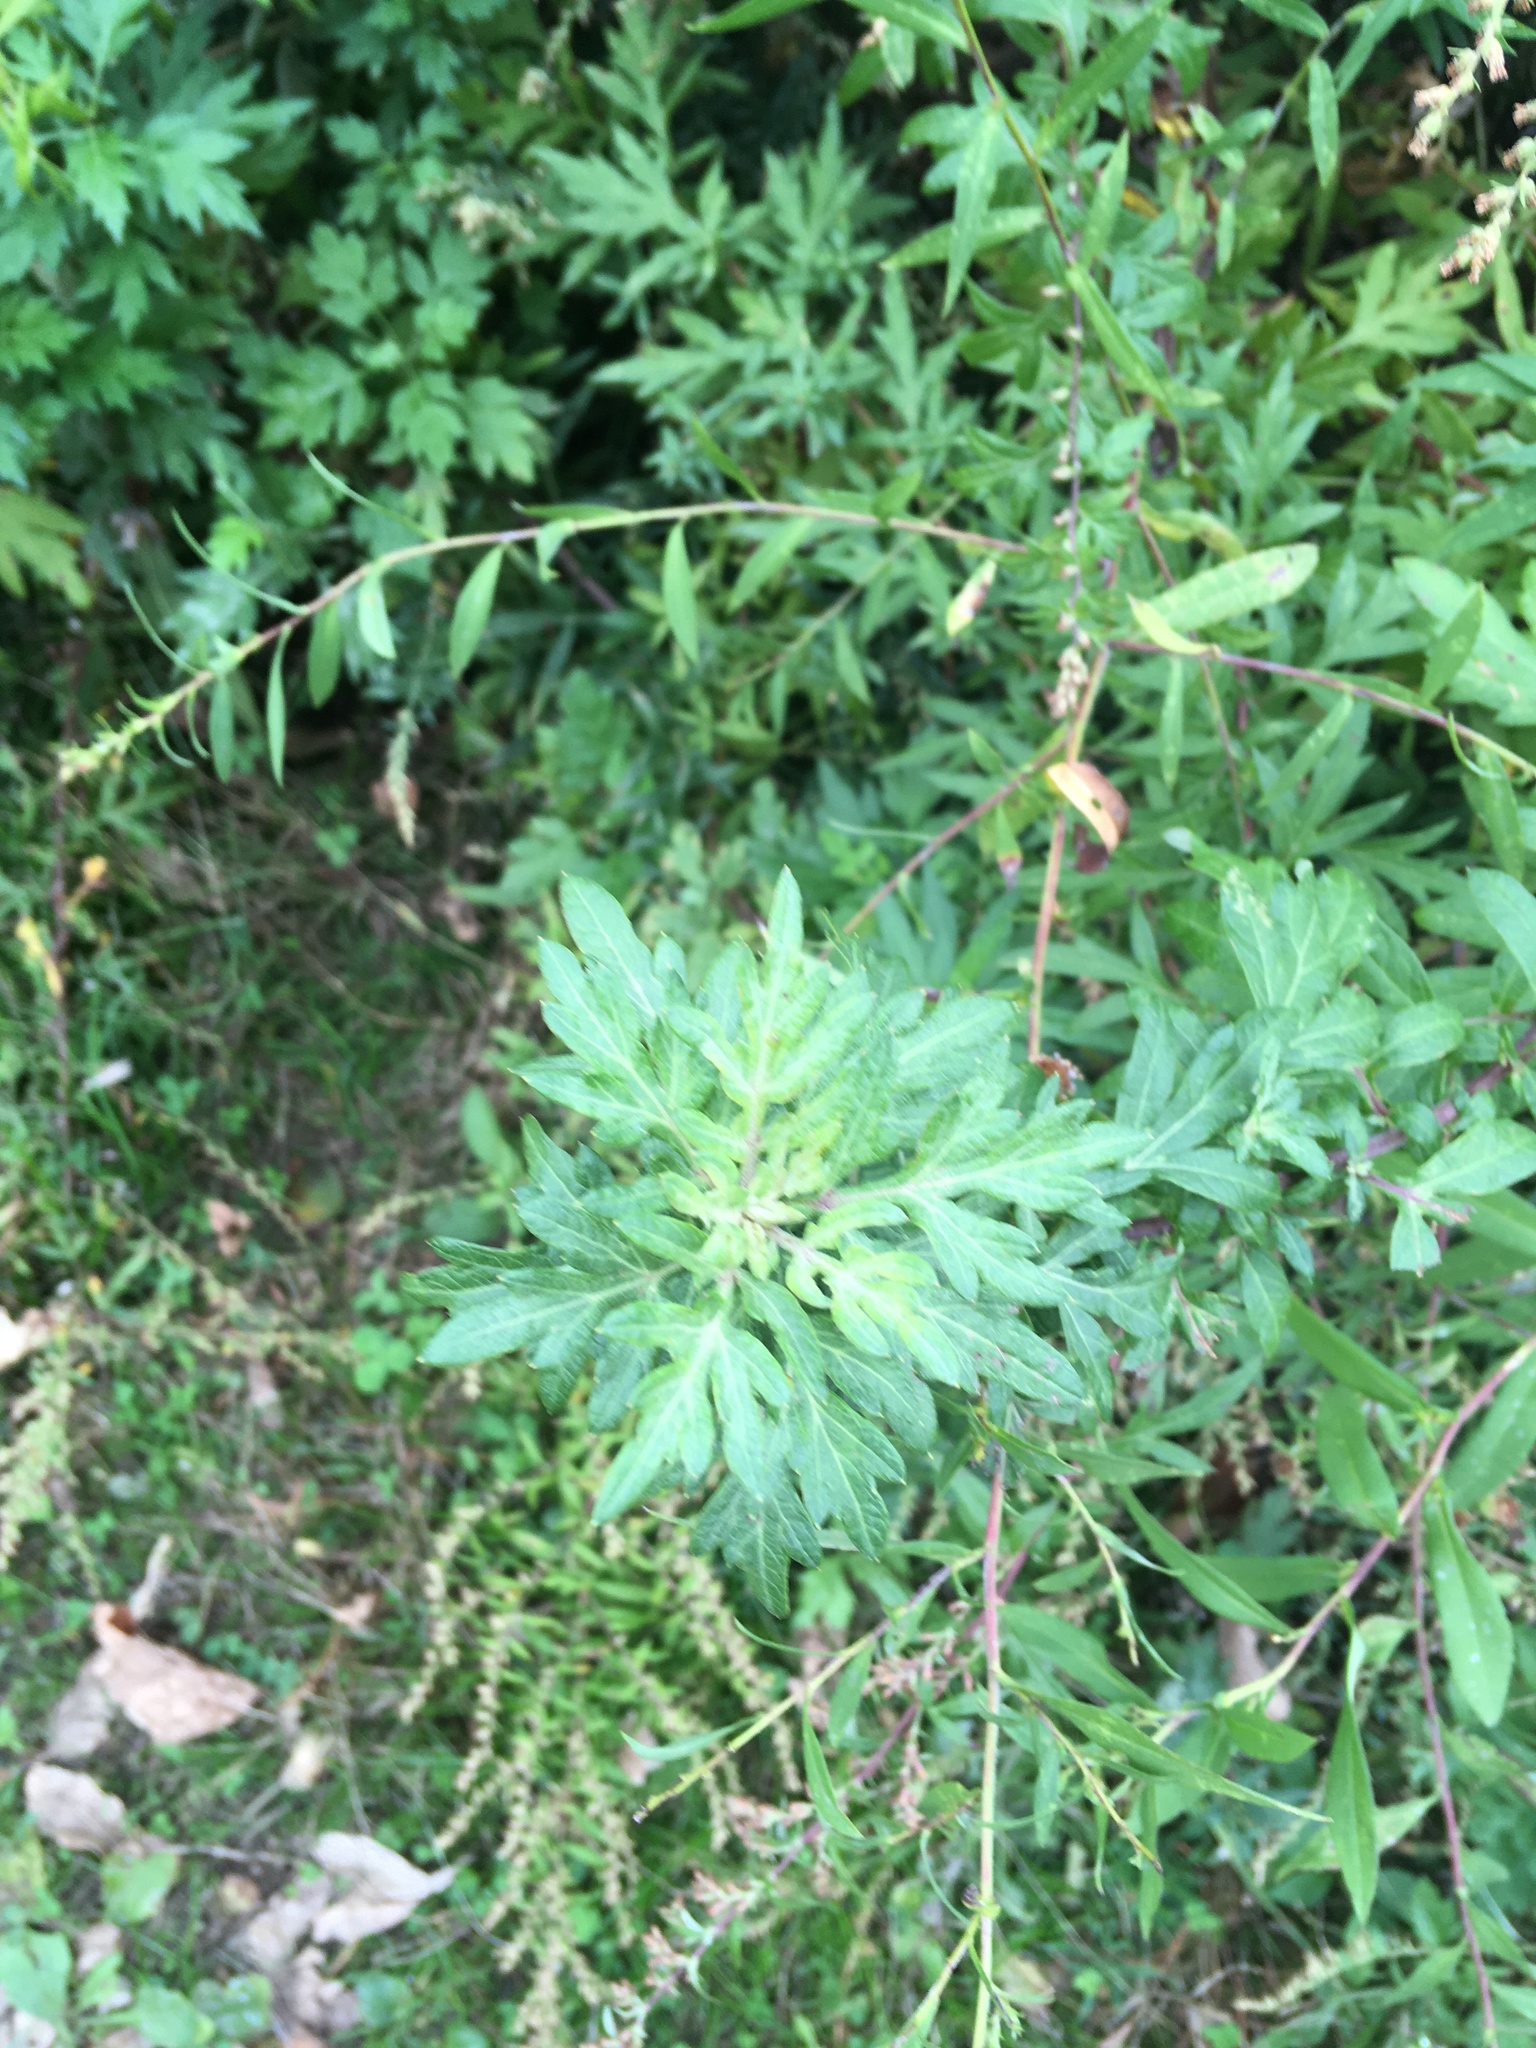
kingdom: Plantae
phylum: Tracheophyta
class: Magnoliopsida
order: Asterales
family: Asteraceae
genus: Artemisia
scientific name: Artemisia vulgaris
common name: Mugwort
